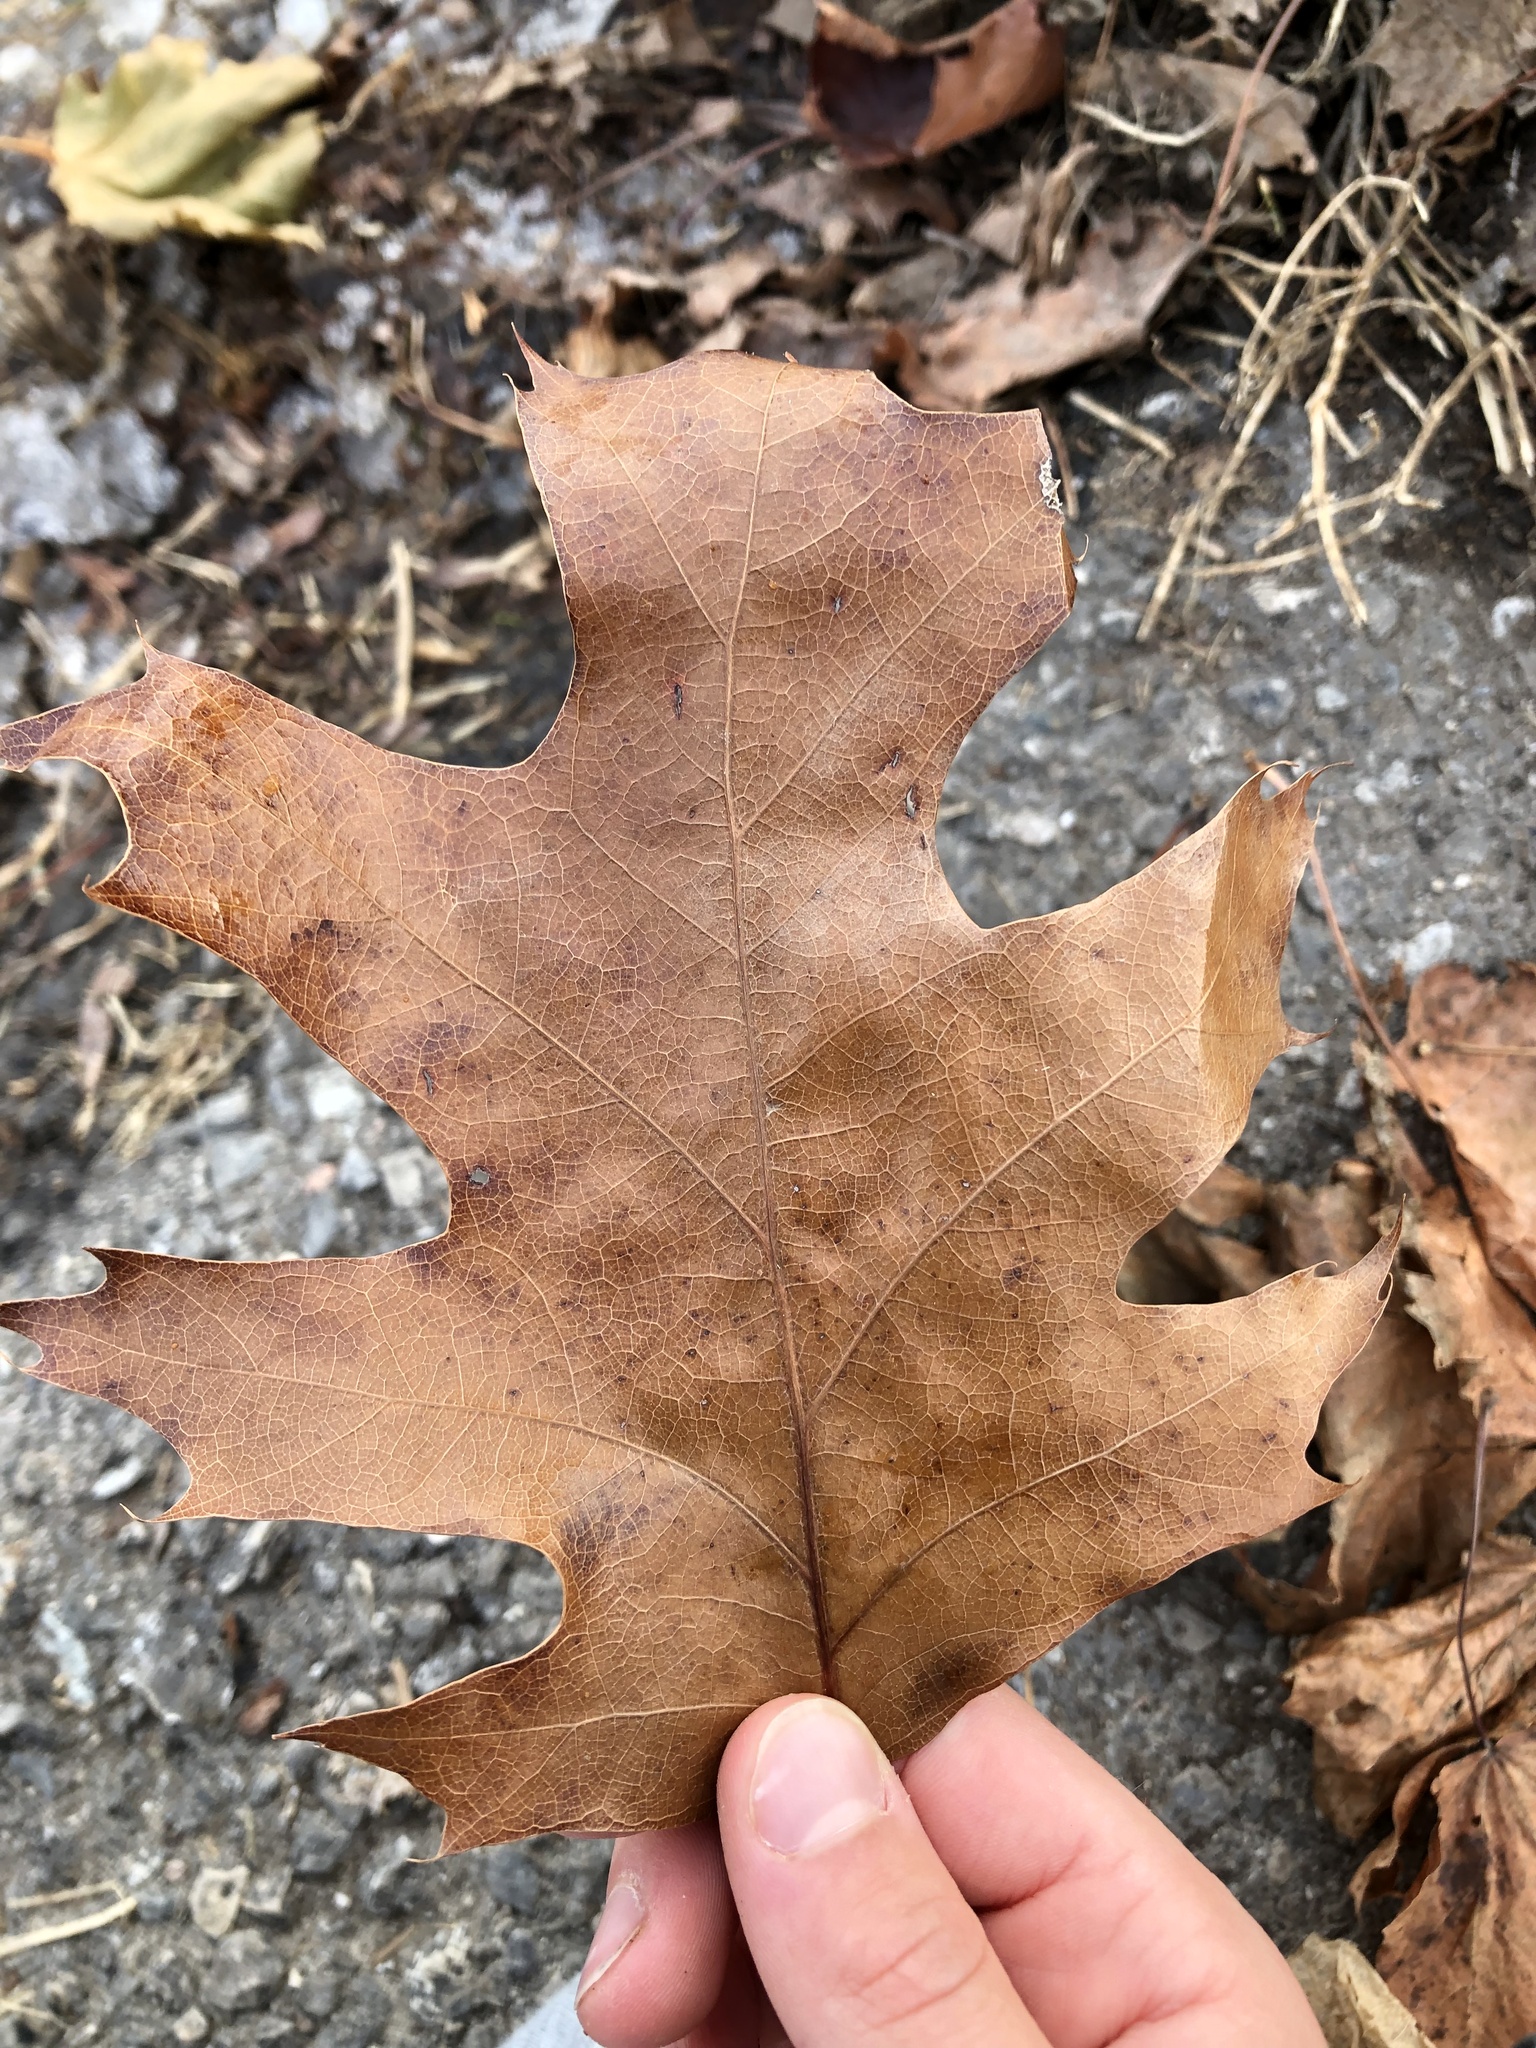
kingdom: Plantae
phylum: Tracheophyta
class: Magnoliopsida
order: Fagales
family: Fagaceae
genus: Quercus
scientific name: Quercus rubra
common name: Red oak
